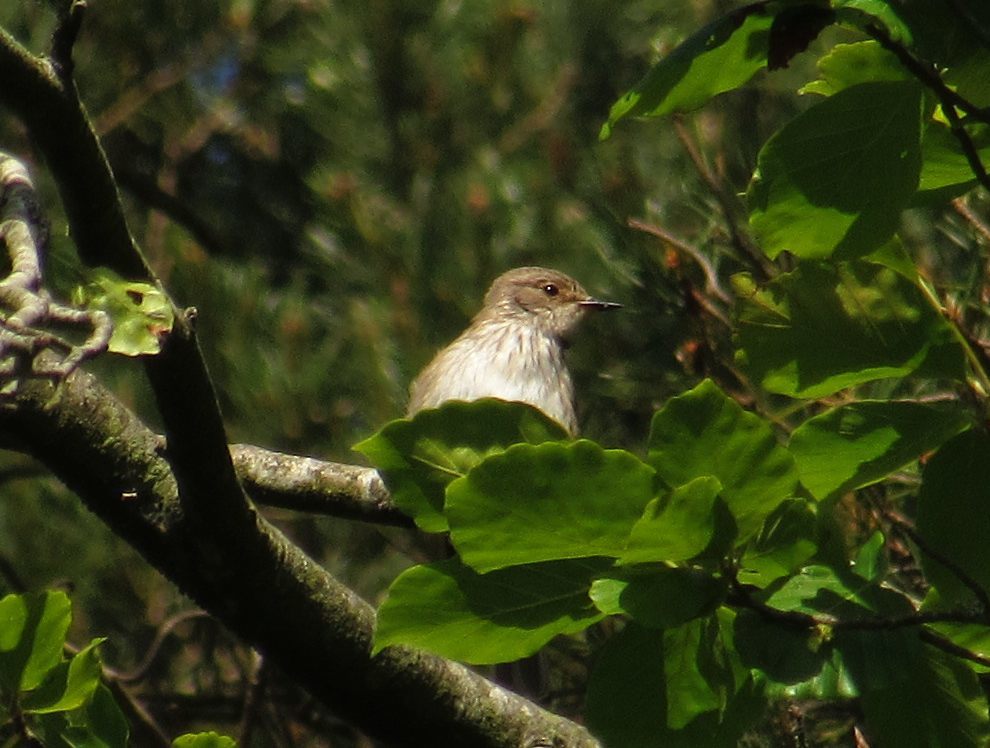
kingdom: Animalia
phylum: Chordata
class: Aves
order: Passeriformes
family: Muscicapidae
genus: Muscicapa
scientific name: Muscicapa striata
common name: Spotted flycatcher
